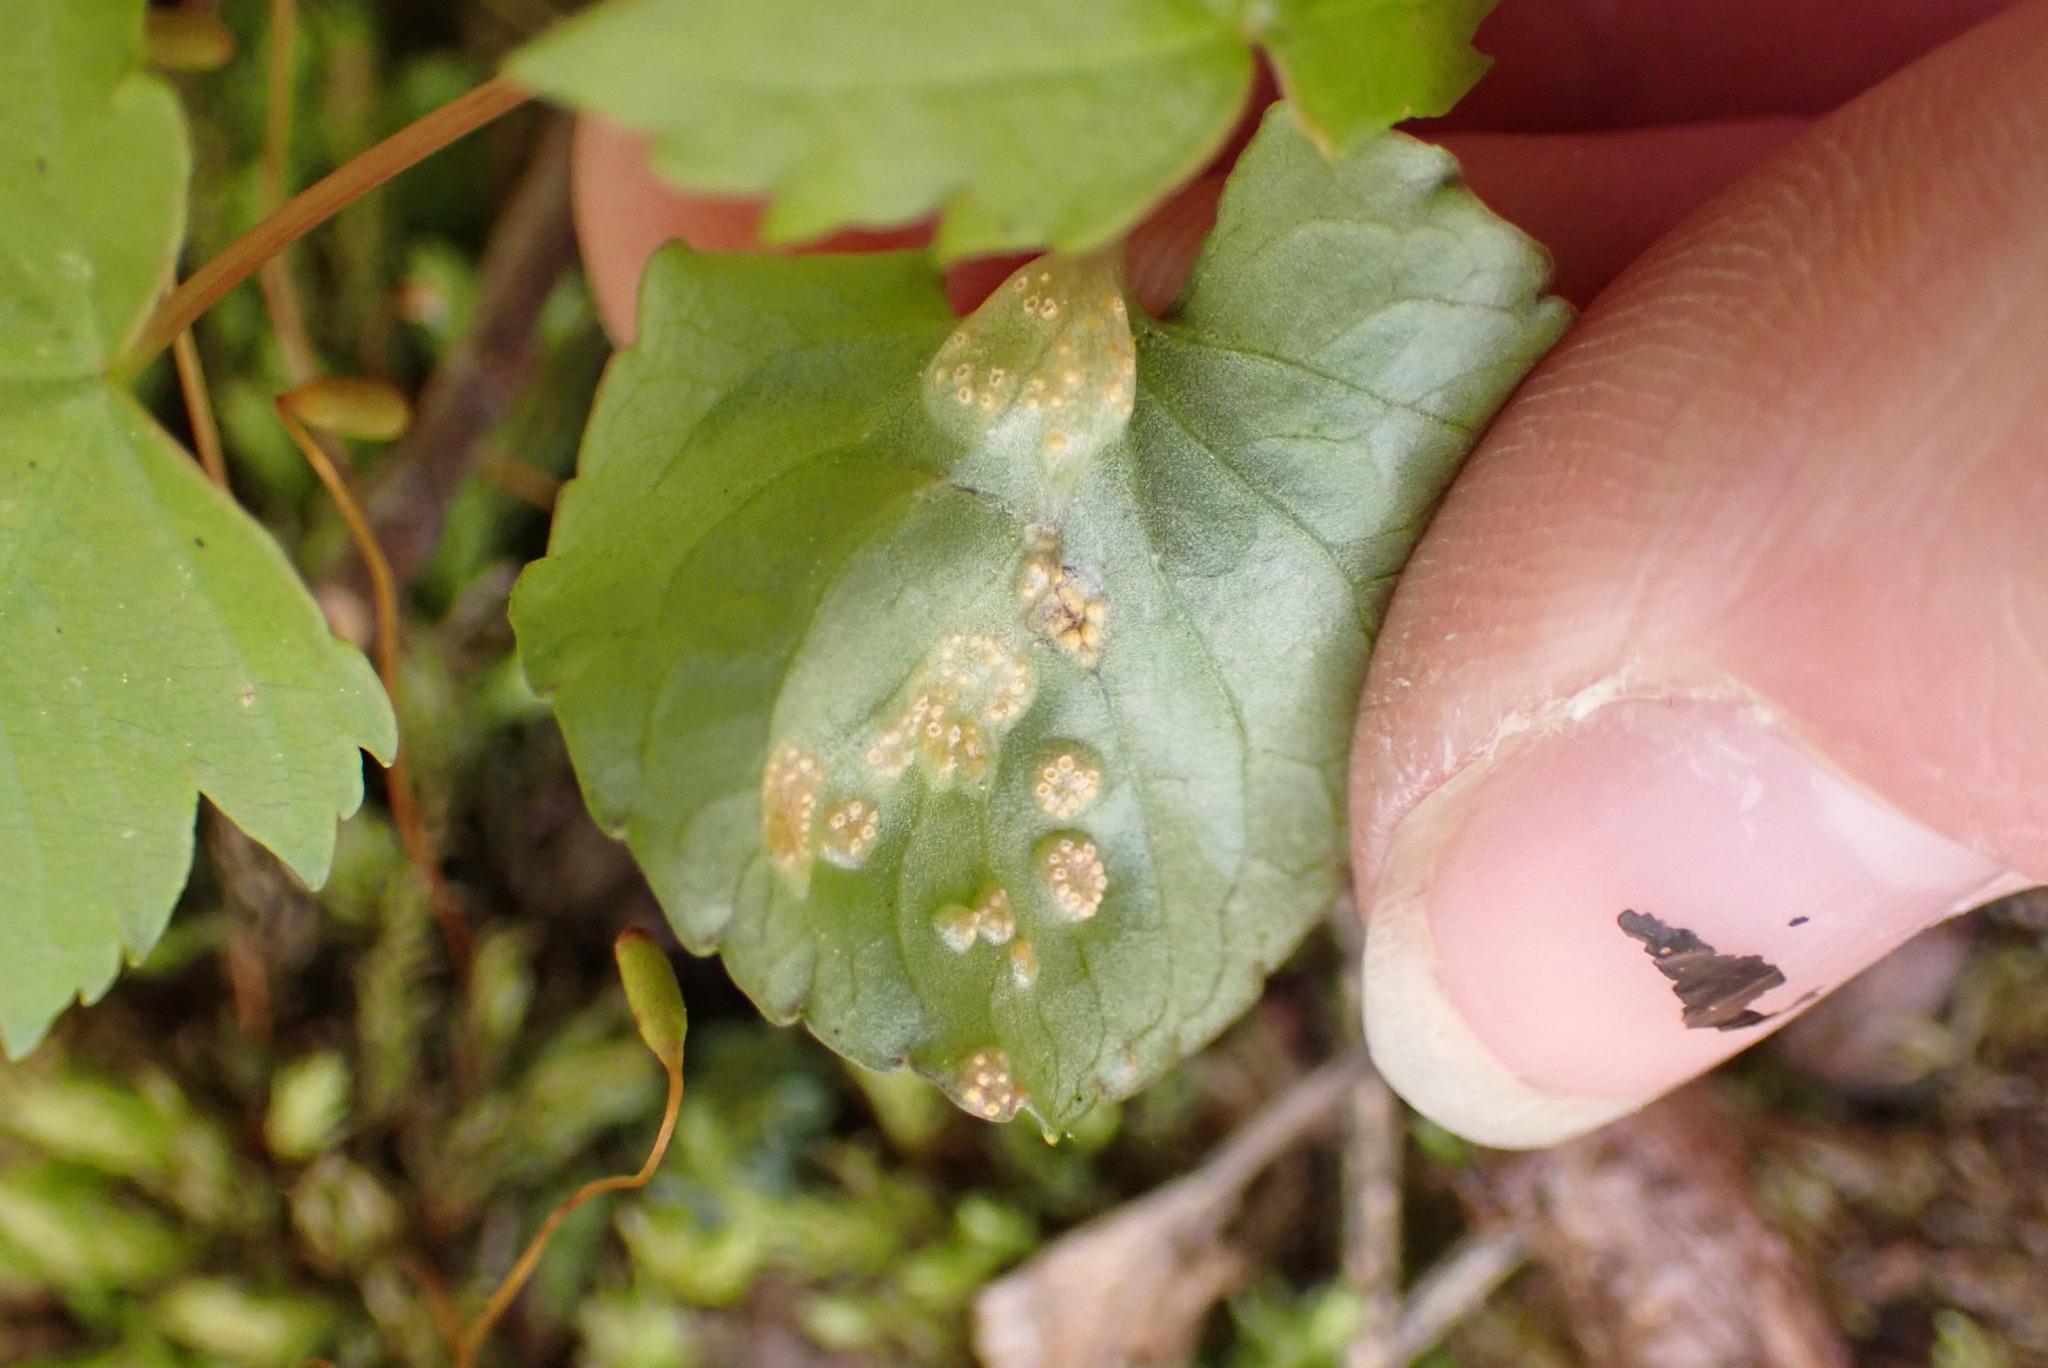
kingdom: Fungi
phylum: Basidiomycota
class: Pucciniomycetes
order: Pucciniales
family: Pucciniaceae
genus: Puccinia
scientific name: Puccinia violae
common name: Violet rust
